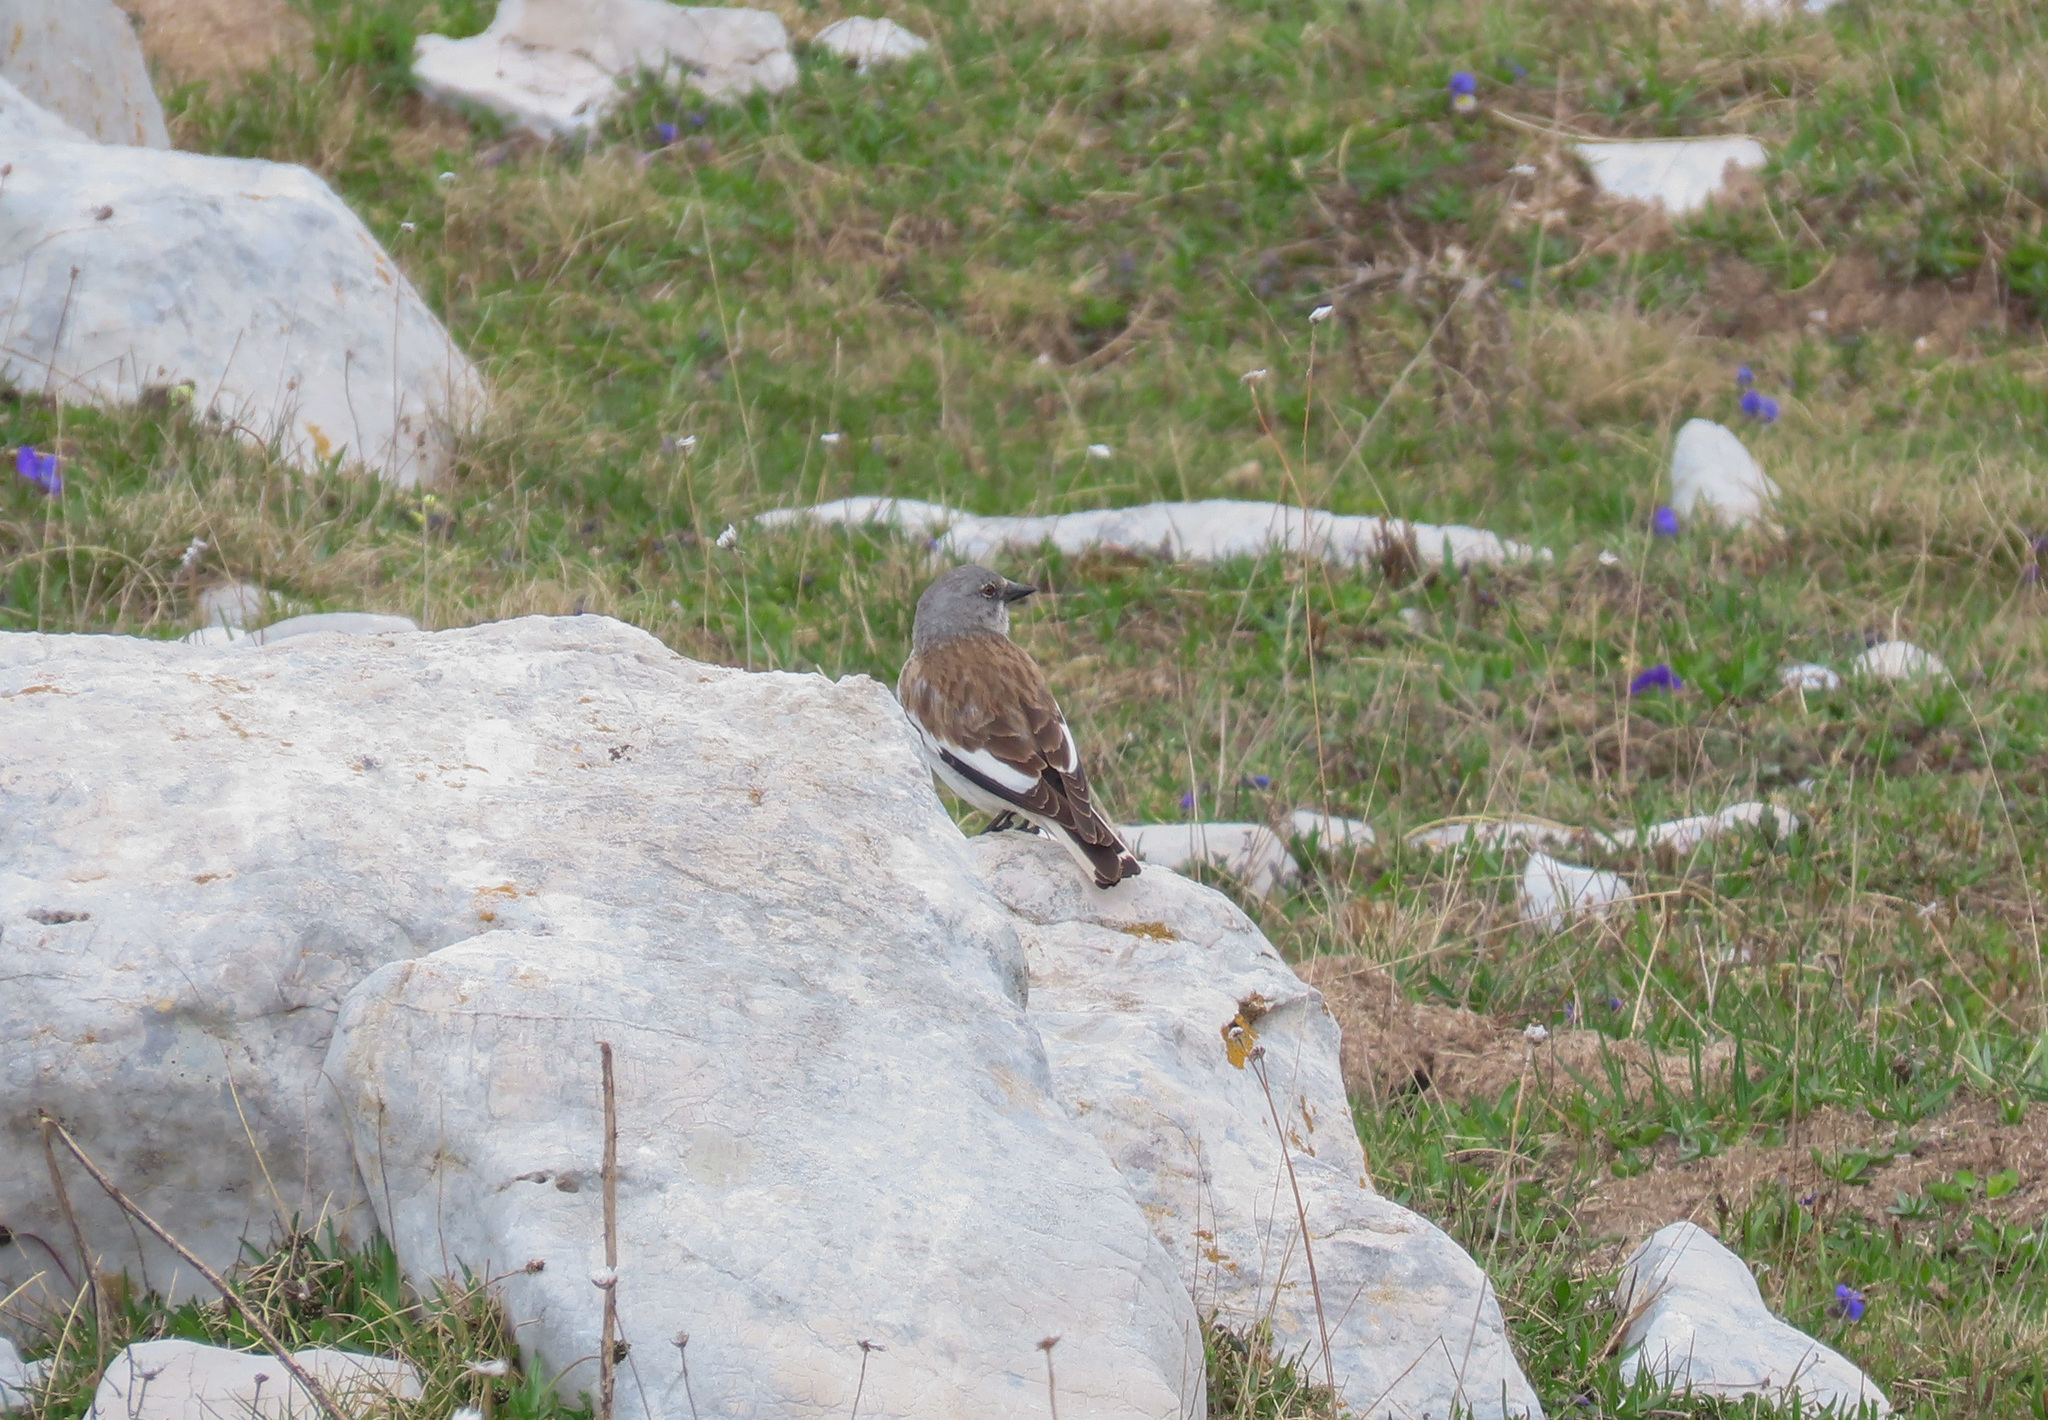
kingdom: Animalia
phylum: Chordata
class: Aves
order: Passeriformes
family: Passeridae
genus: Montifringilla
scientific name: Montifringilla nivalis
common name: White-winged snowfinch
